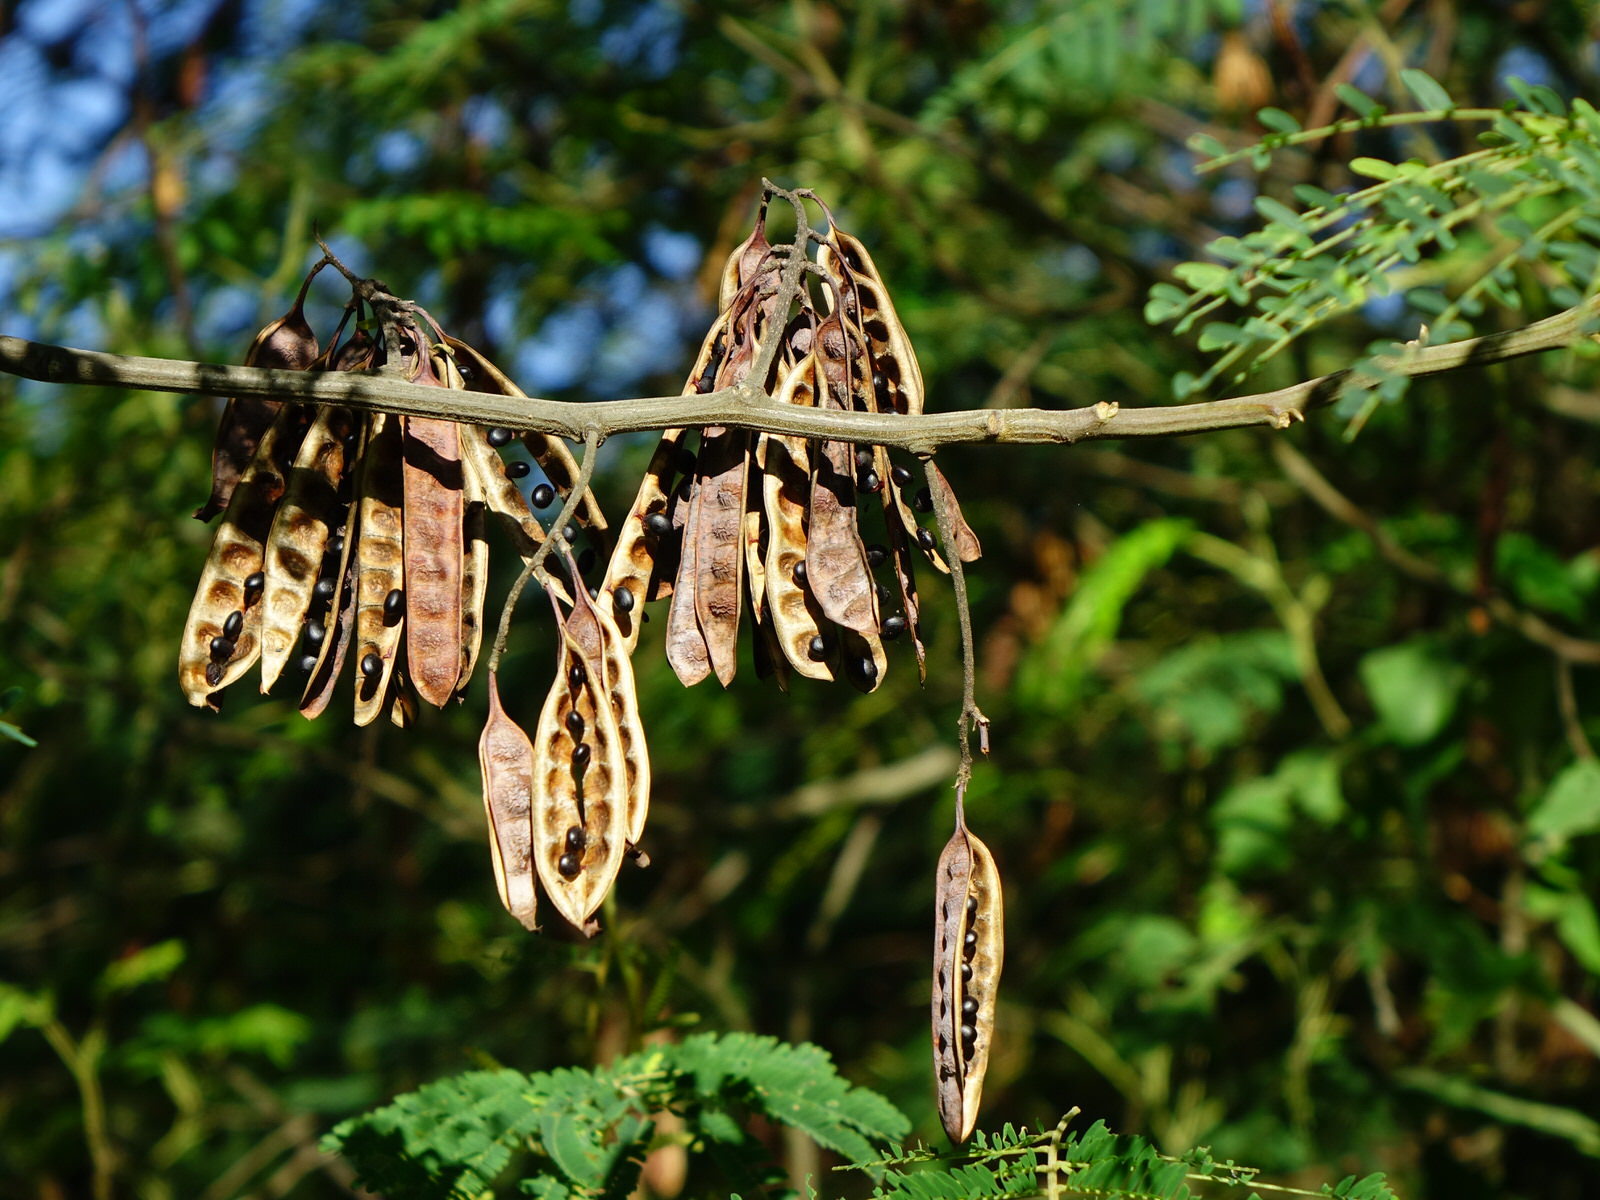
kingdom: Plantae
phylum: Tracheophyta
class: Magnoliopsida
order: Fabales
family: Fabaceae
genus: Paraserianthes
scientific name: Paraserianthes lophantha
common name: Plume albizia
